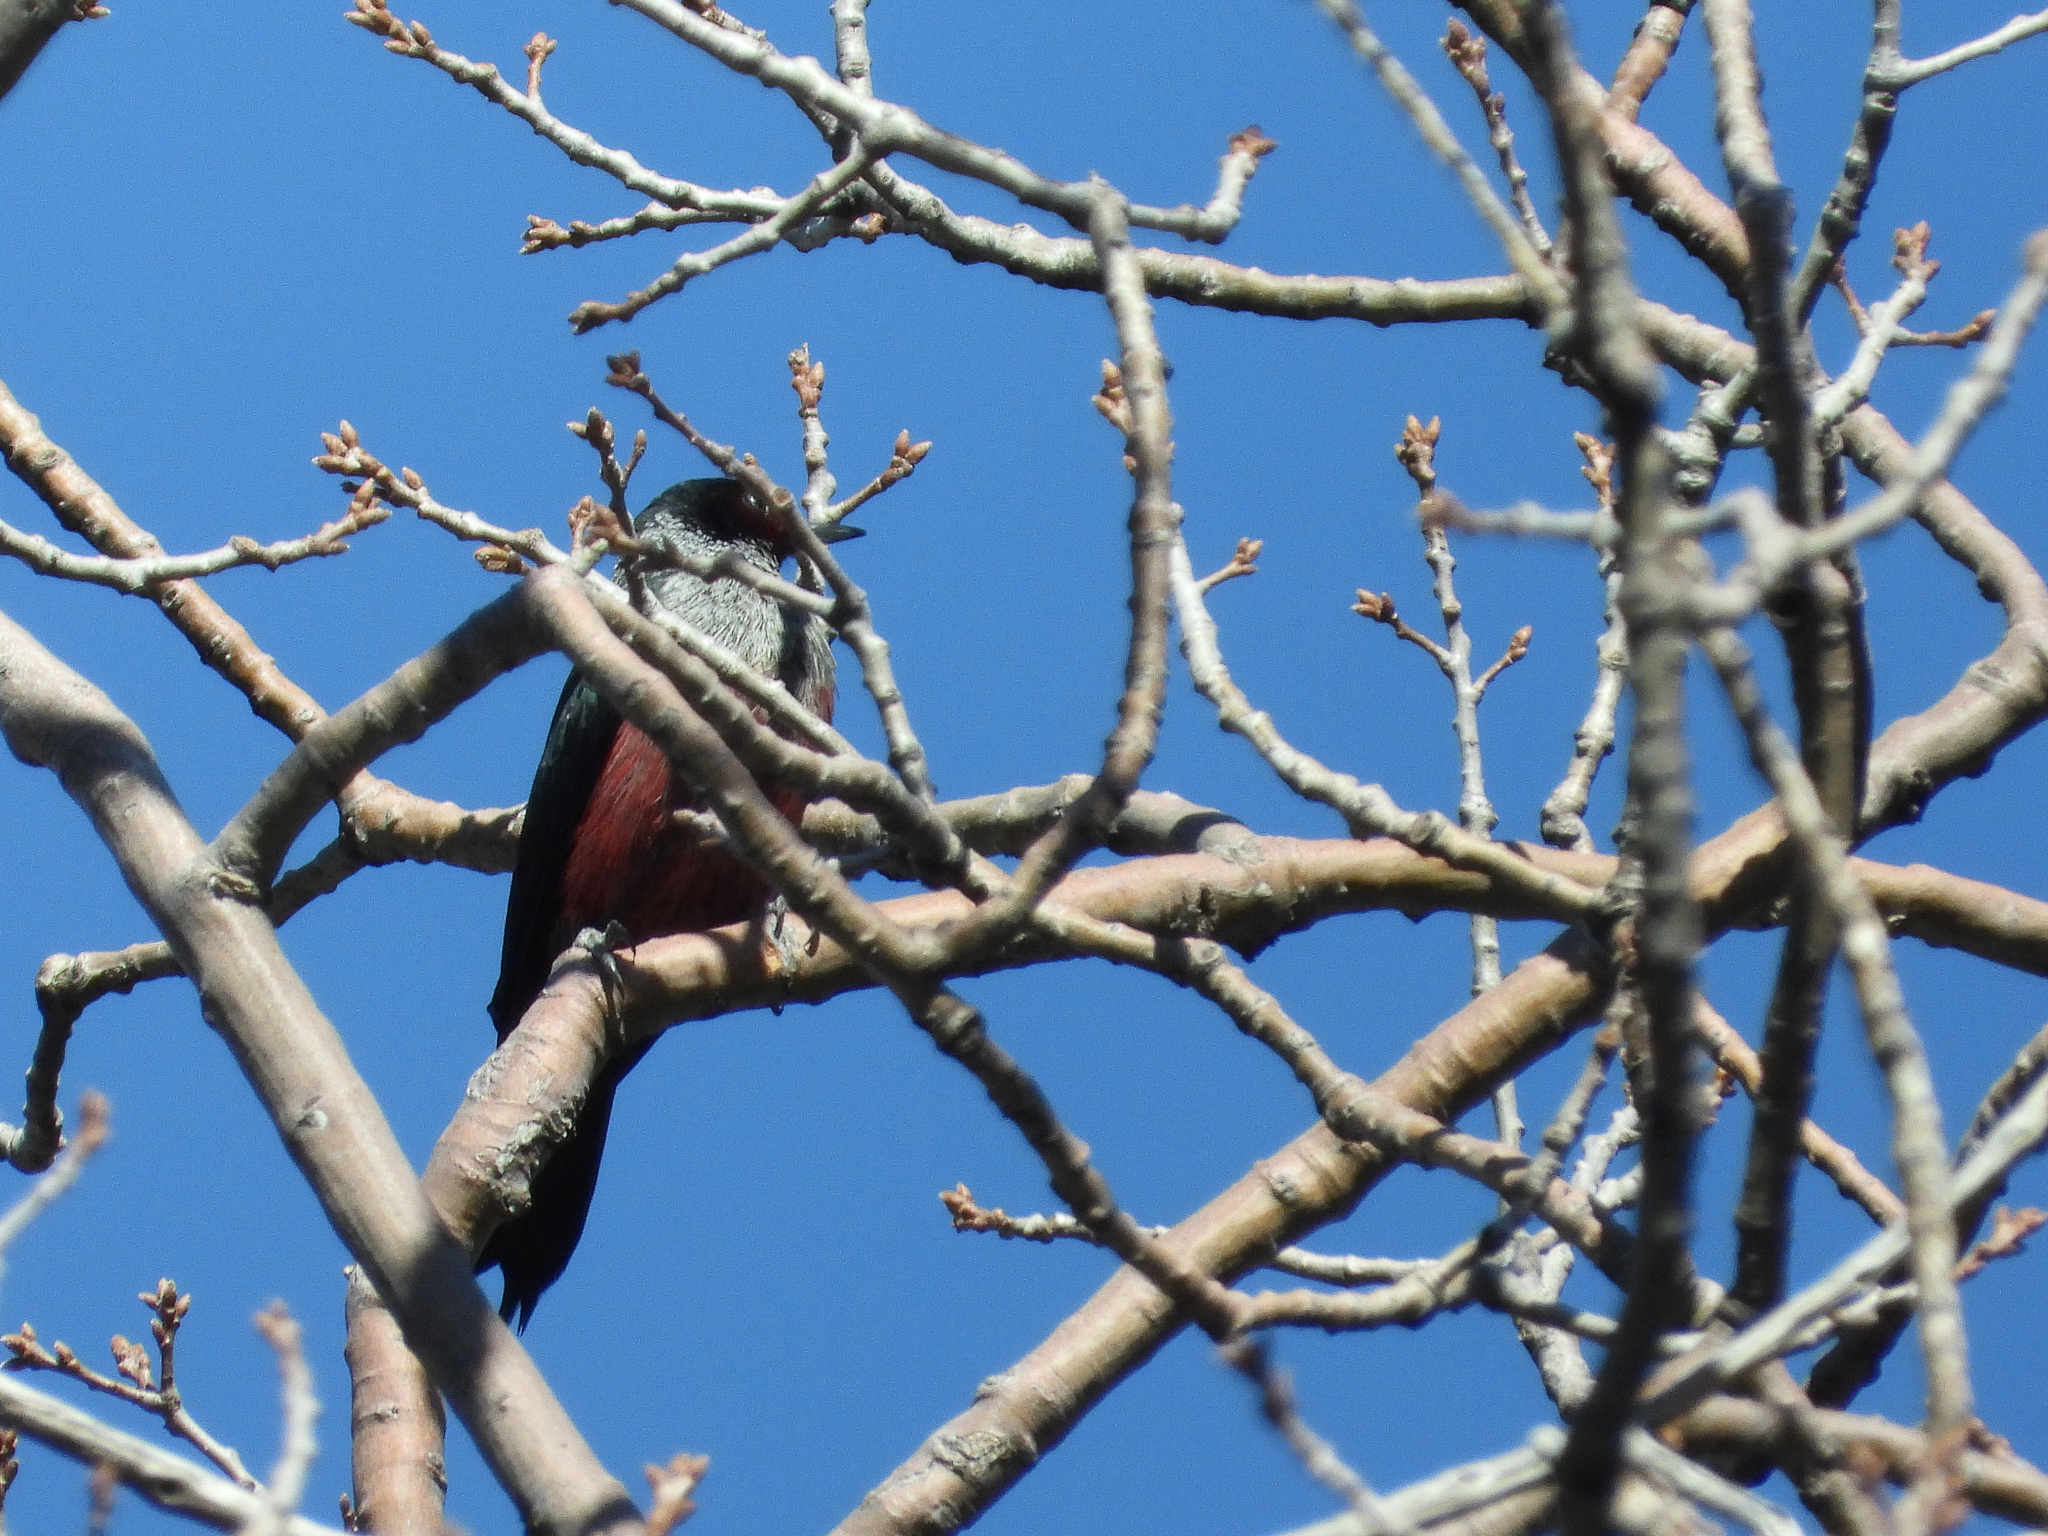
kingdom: Animalia
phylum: Chordata
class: Aves
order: Piciformes
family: Picidae
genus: Melanerpes
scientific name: Melanerpes lewis
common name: Lewis's woodpecker
